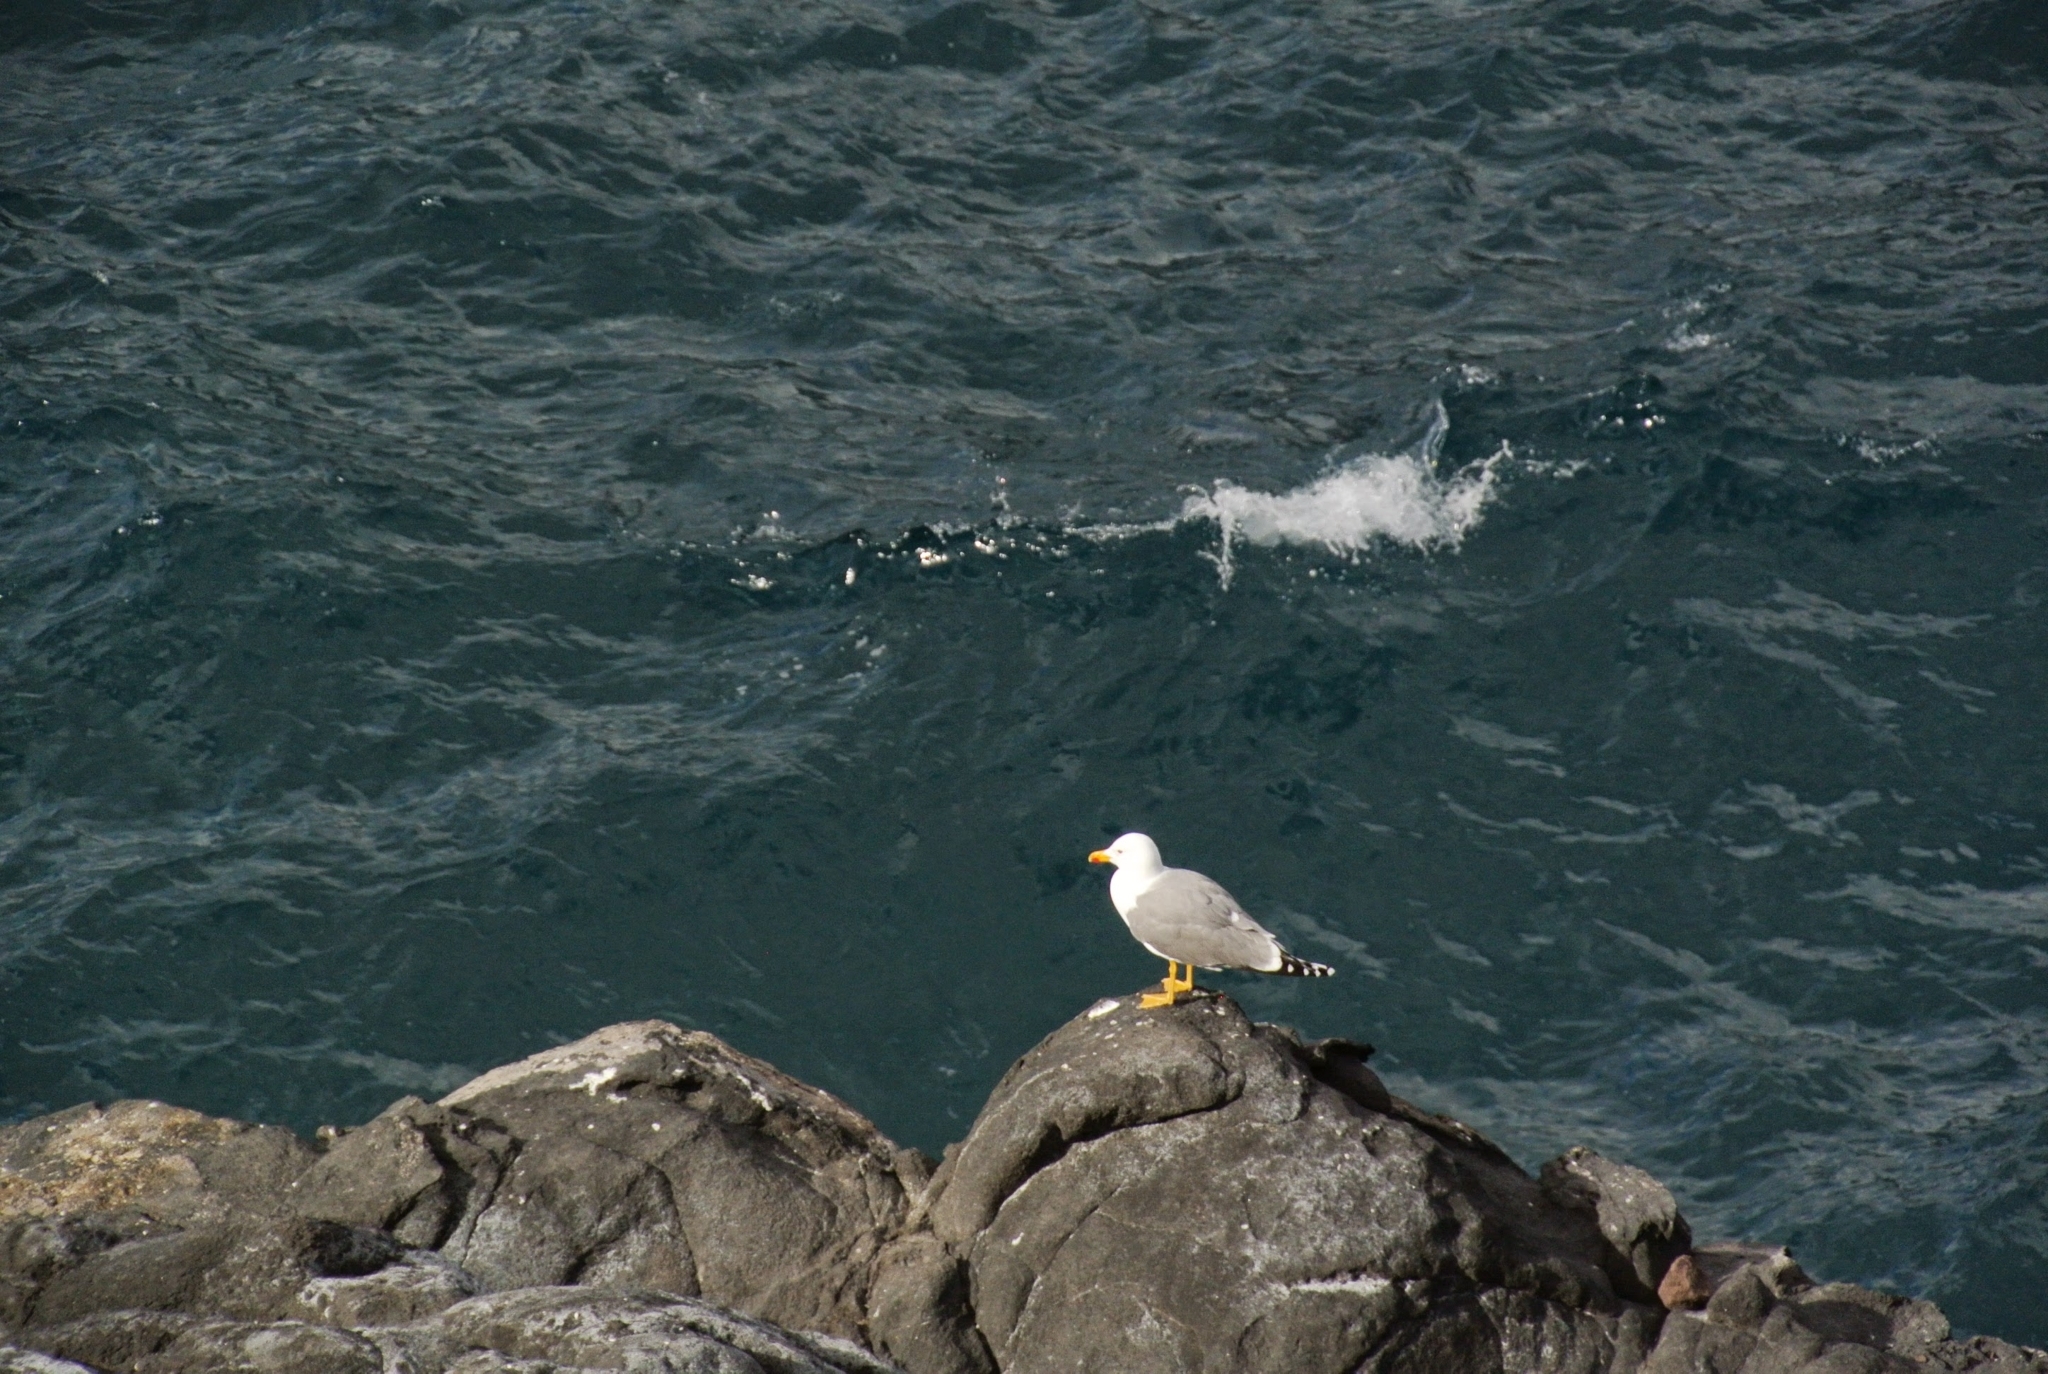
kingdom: Animalia
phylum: Chordata
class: Aves
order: Charadriiformes
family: Laridae
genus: Larus
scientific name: Larus michahellis
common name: Yellow-legged gull
